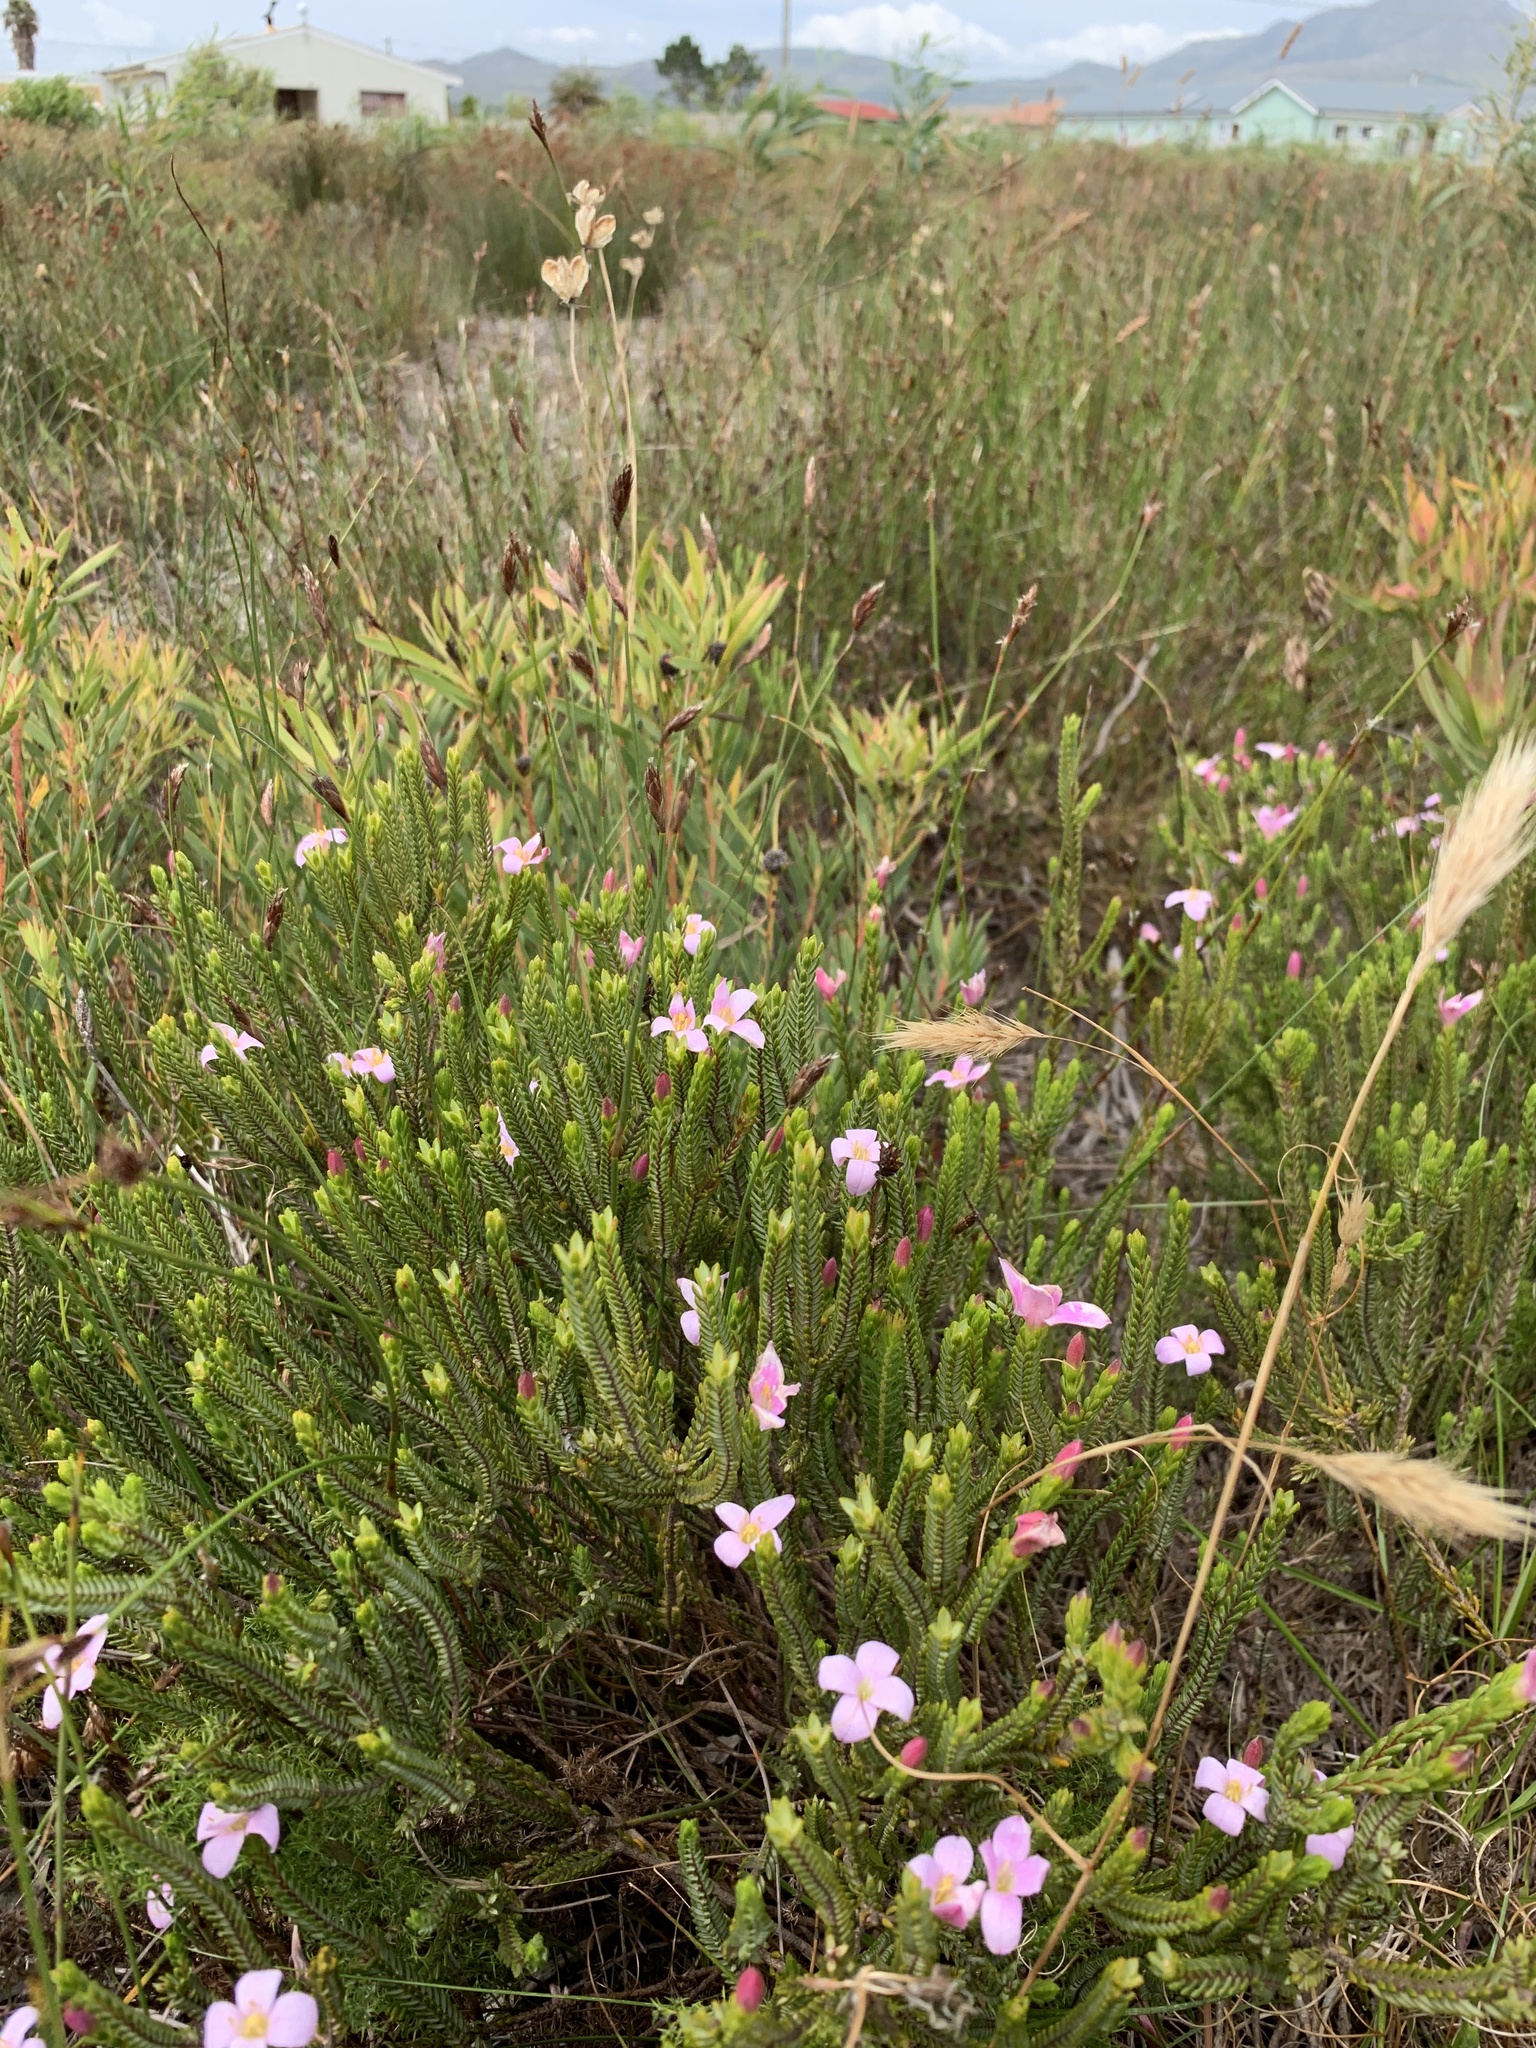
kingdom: Plantae
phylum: Tracheophyta
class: Magnoliopsida
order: Malvales
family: Thymelaeaceae
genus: Lachnaea
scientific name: Lachnaea grandiflora
